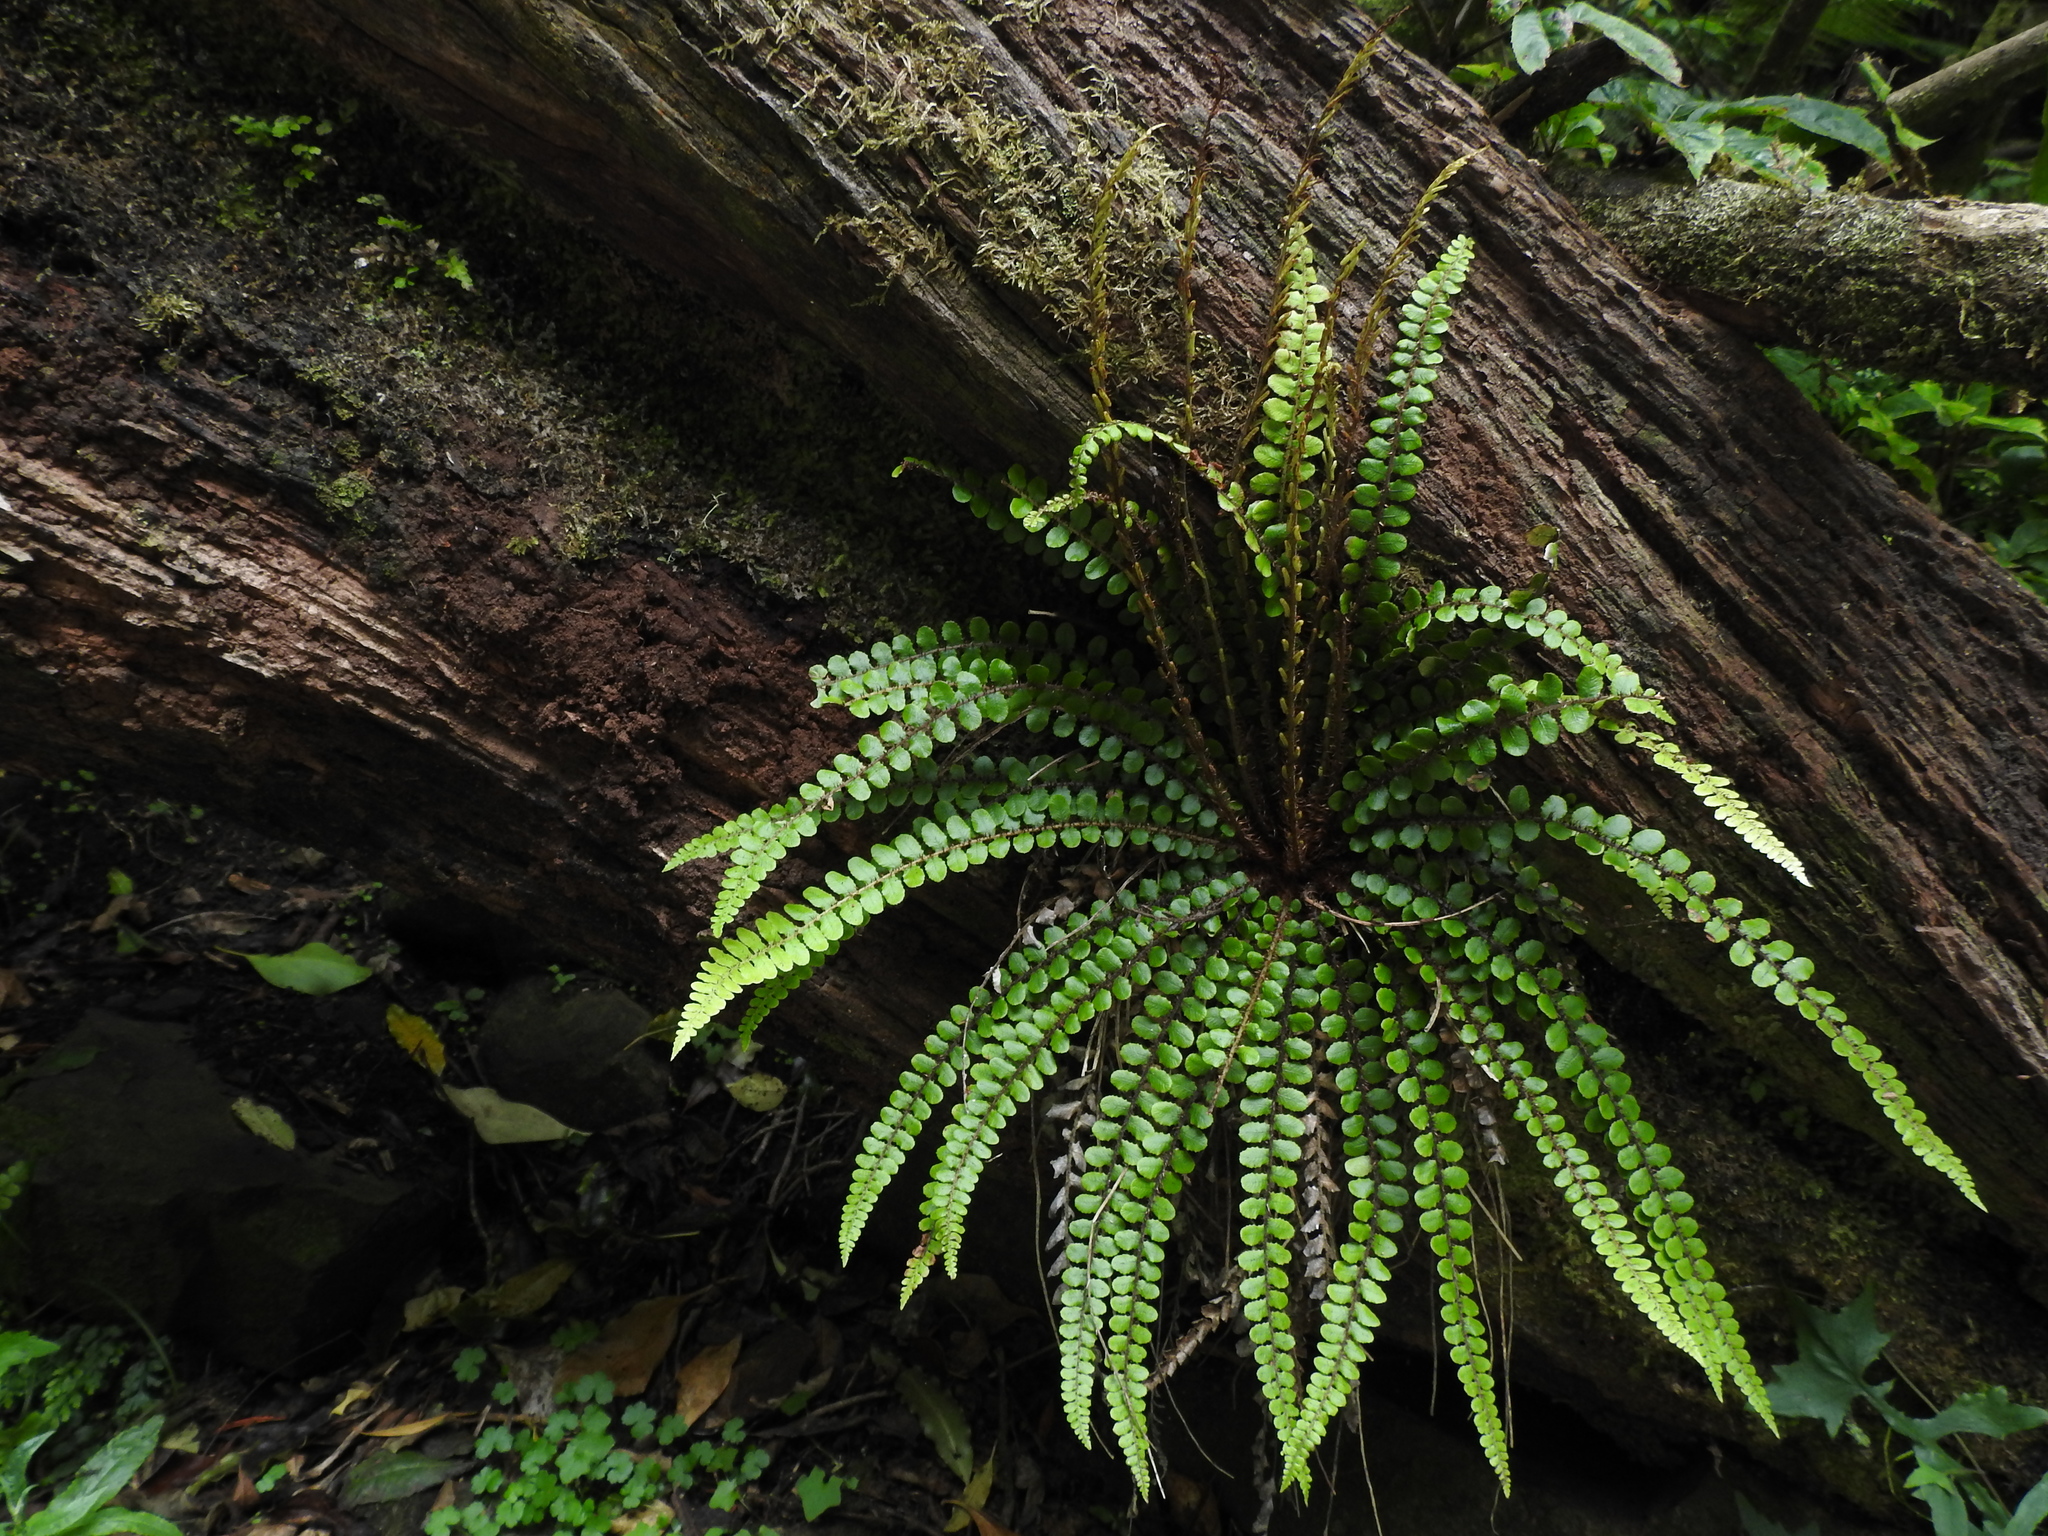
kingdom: Plantae
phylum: Tracheophyta
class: Polypodiopsida
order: Polypodiales
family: Blechnaceae
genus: Cranfillia
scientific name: Cranfillia fluviatilis
